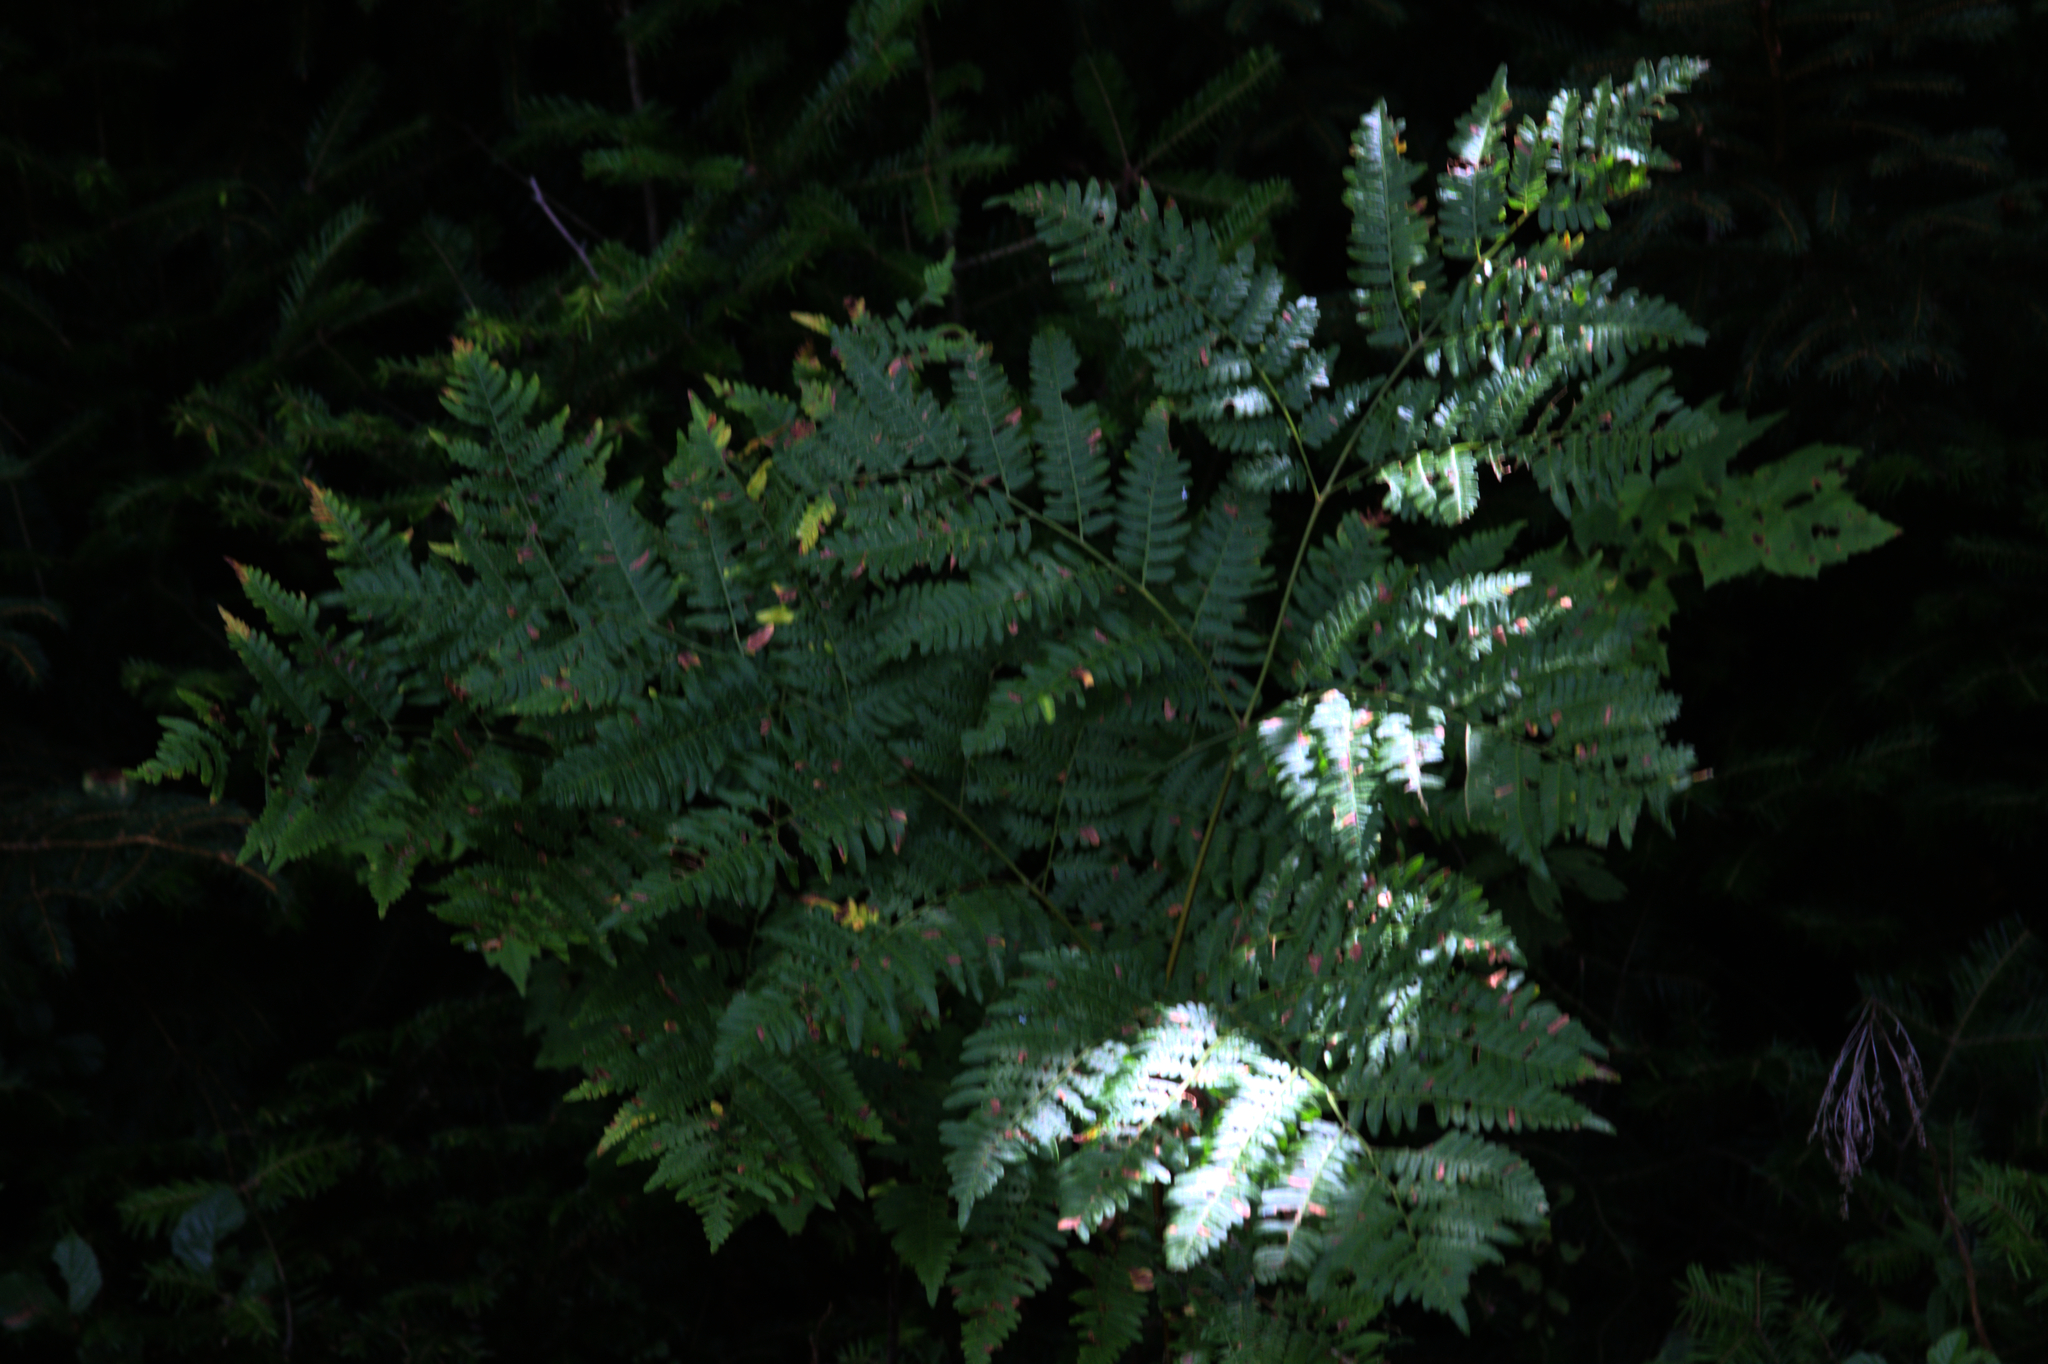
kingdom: Plantae
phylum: Tracheophyta
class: Polypodiopsida
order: Polypodiales
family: Dennstaedtiaceae
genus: Pteridium
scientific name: Pteridium aquilinum
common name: Bracken
